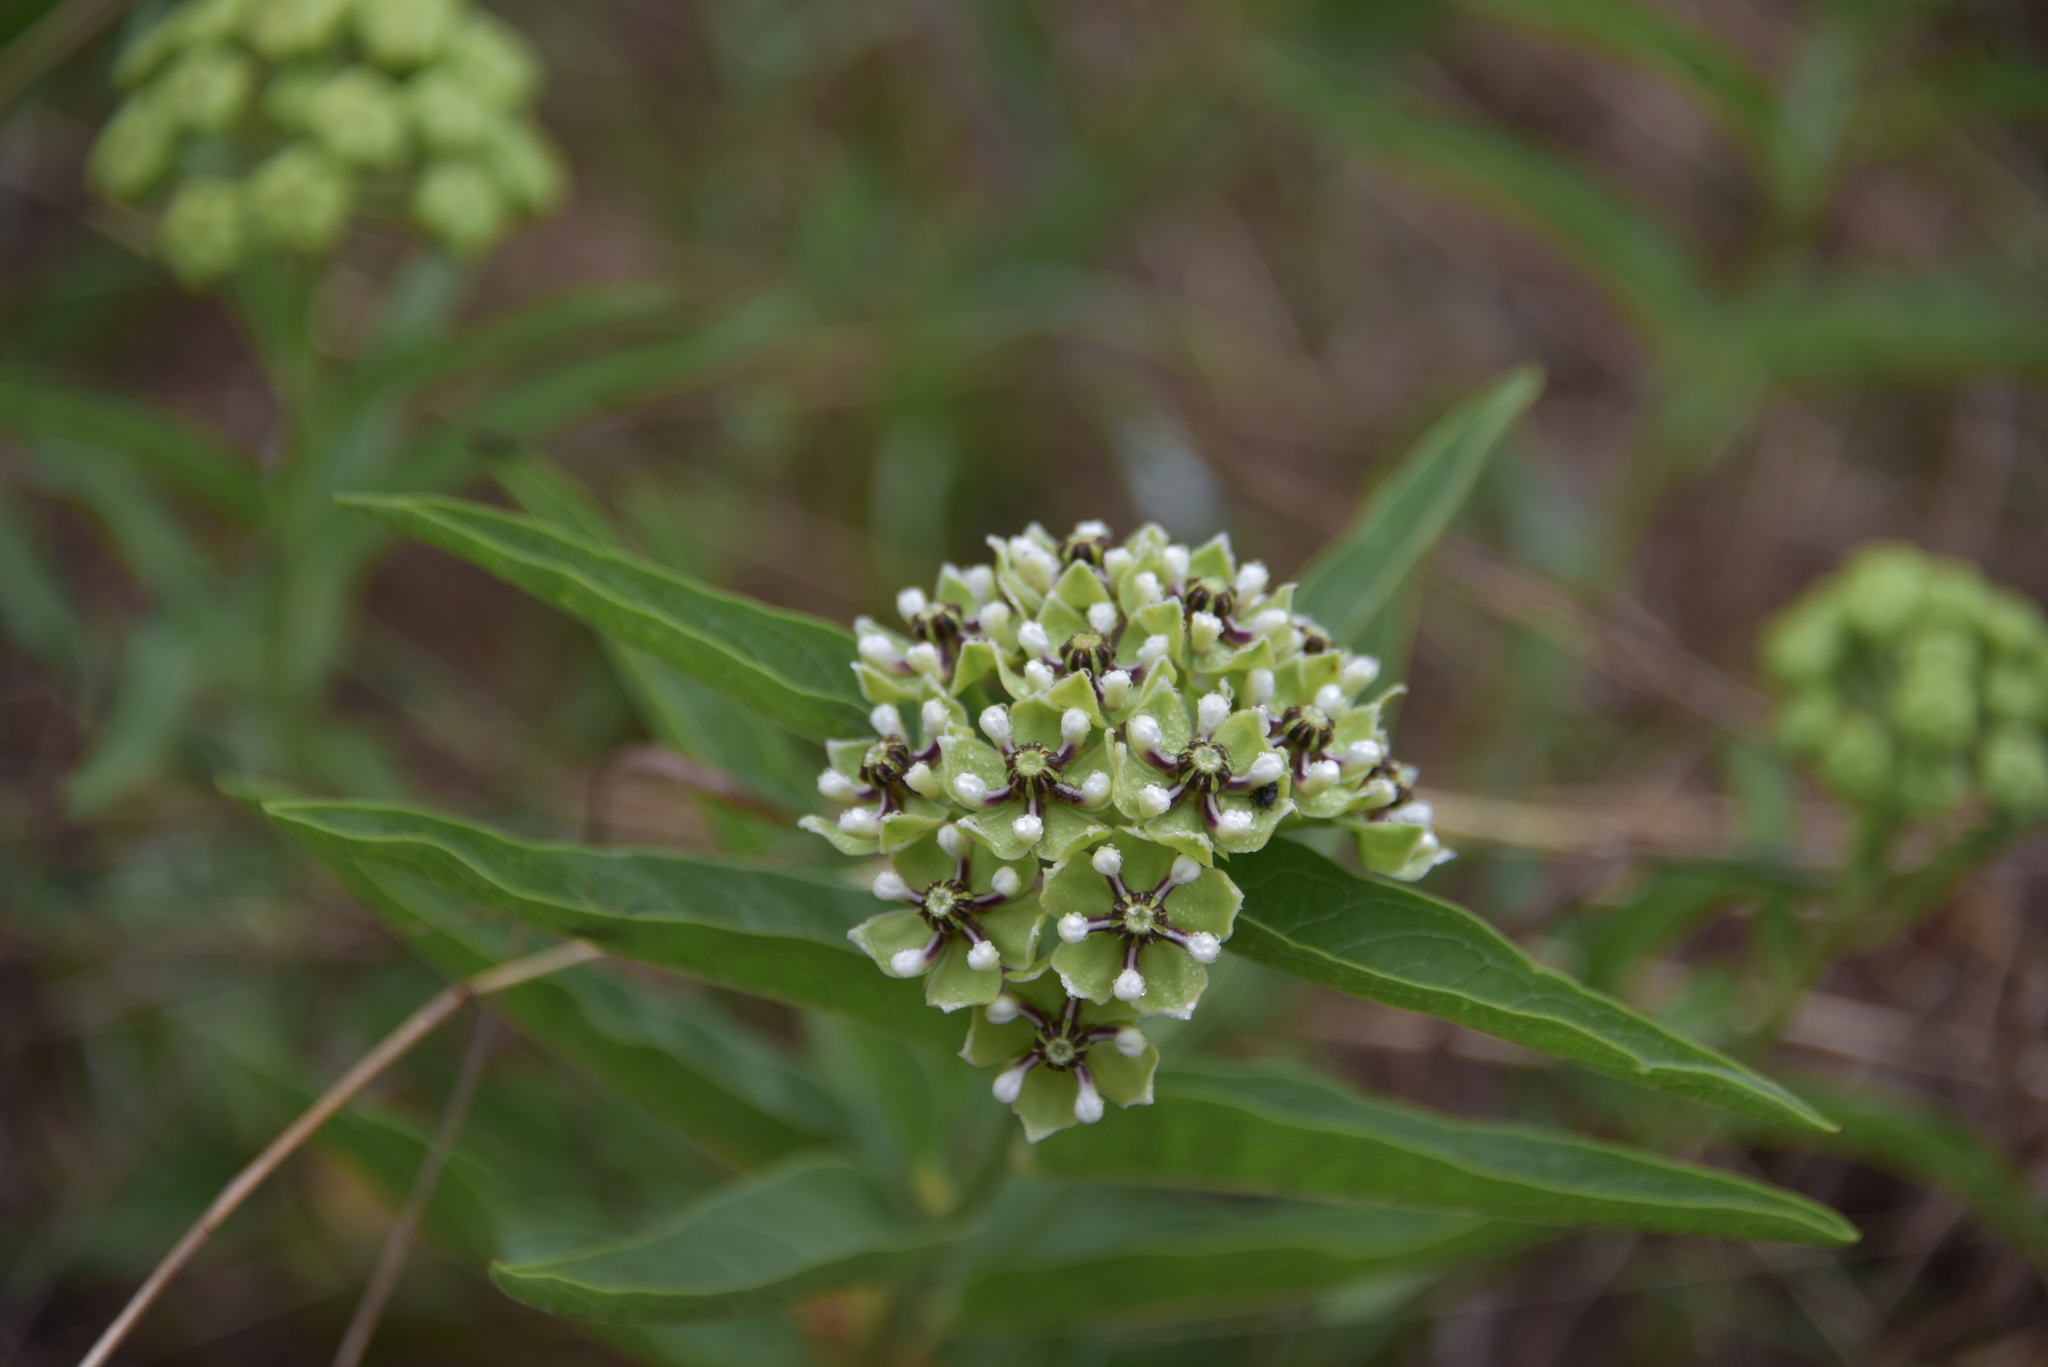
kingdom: Plantae
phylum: Tracheophyta
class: Magnoliopsida
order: Gentianales
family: Apocynaceae
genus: Asclepias
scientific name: Asclepias asperula
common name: Antelope horns
